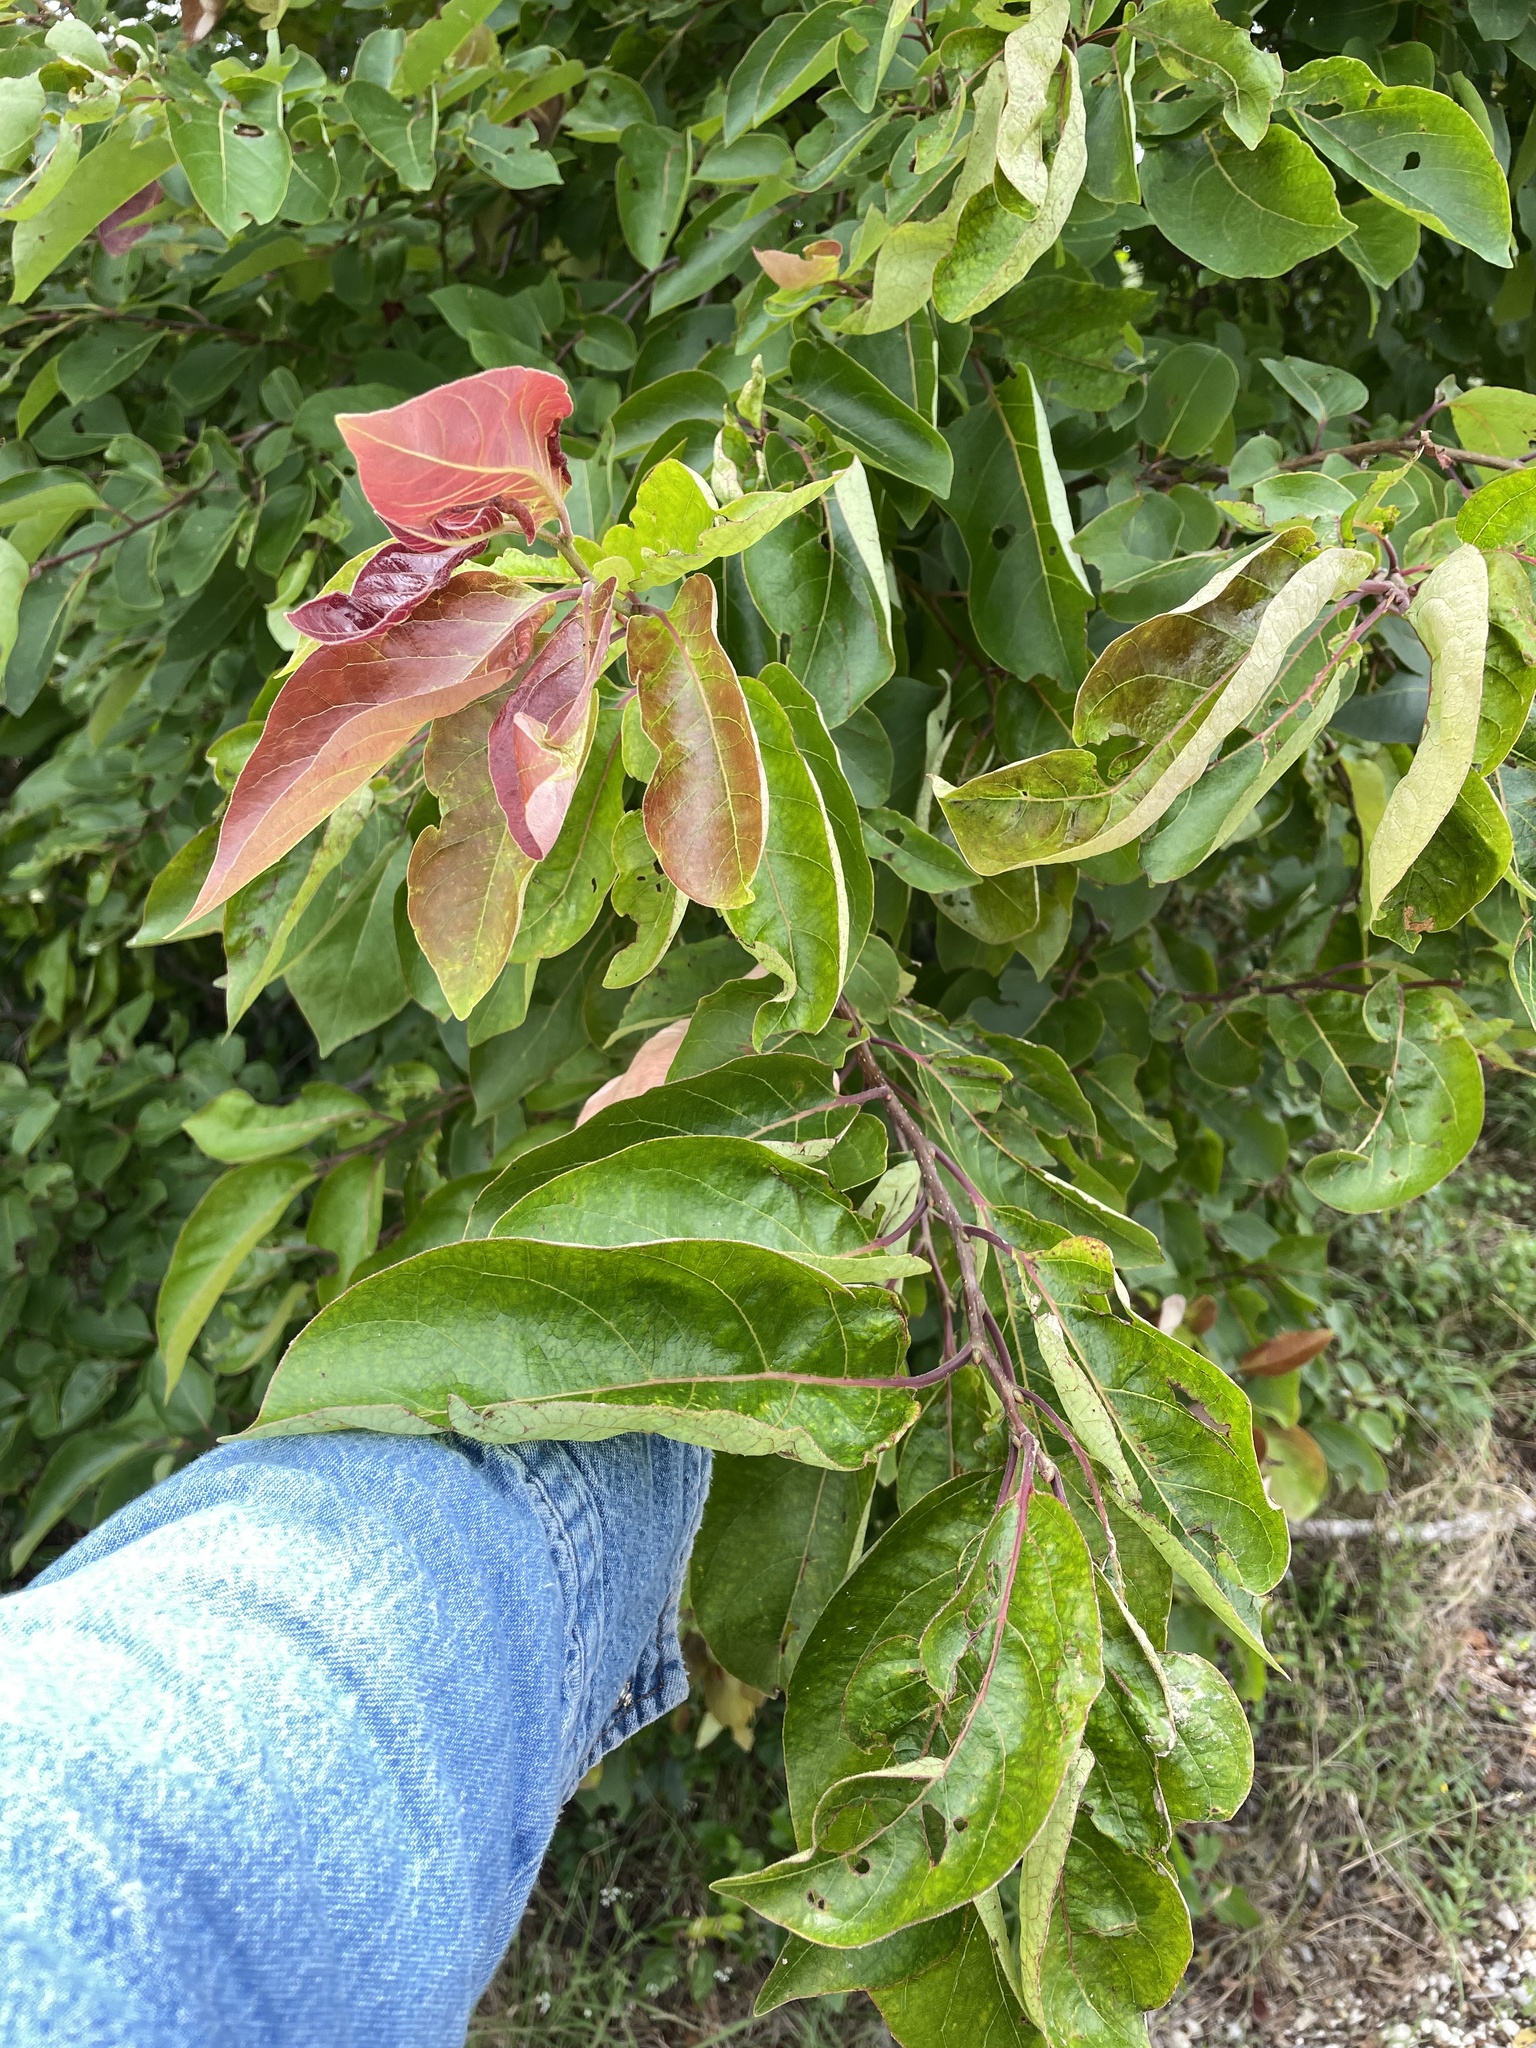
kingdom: Plantae
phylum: Tracheophyta
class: Magnoliopsida
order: Ericales
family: Ebenaceae
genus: Diospyros
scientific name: Diospyros virginiana
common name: Persimmon
